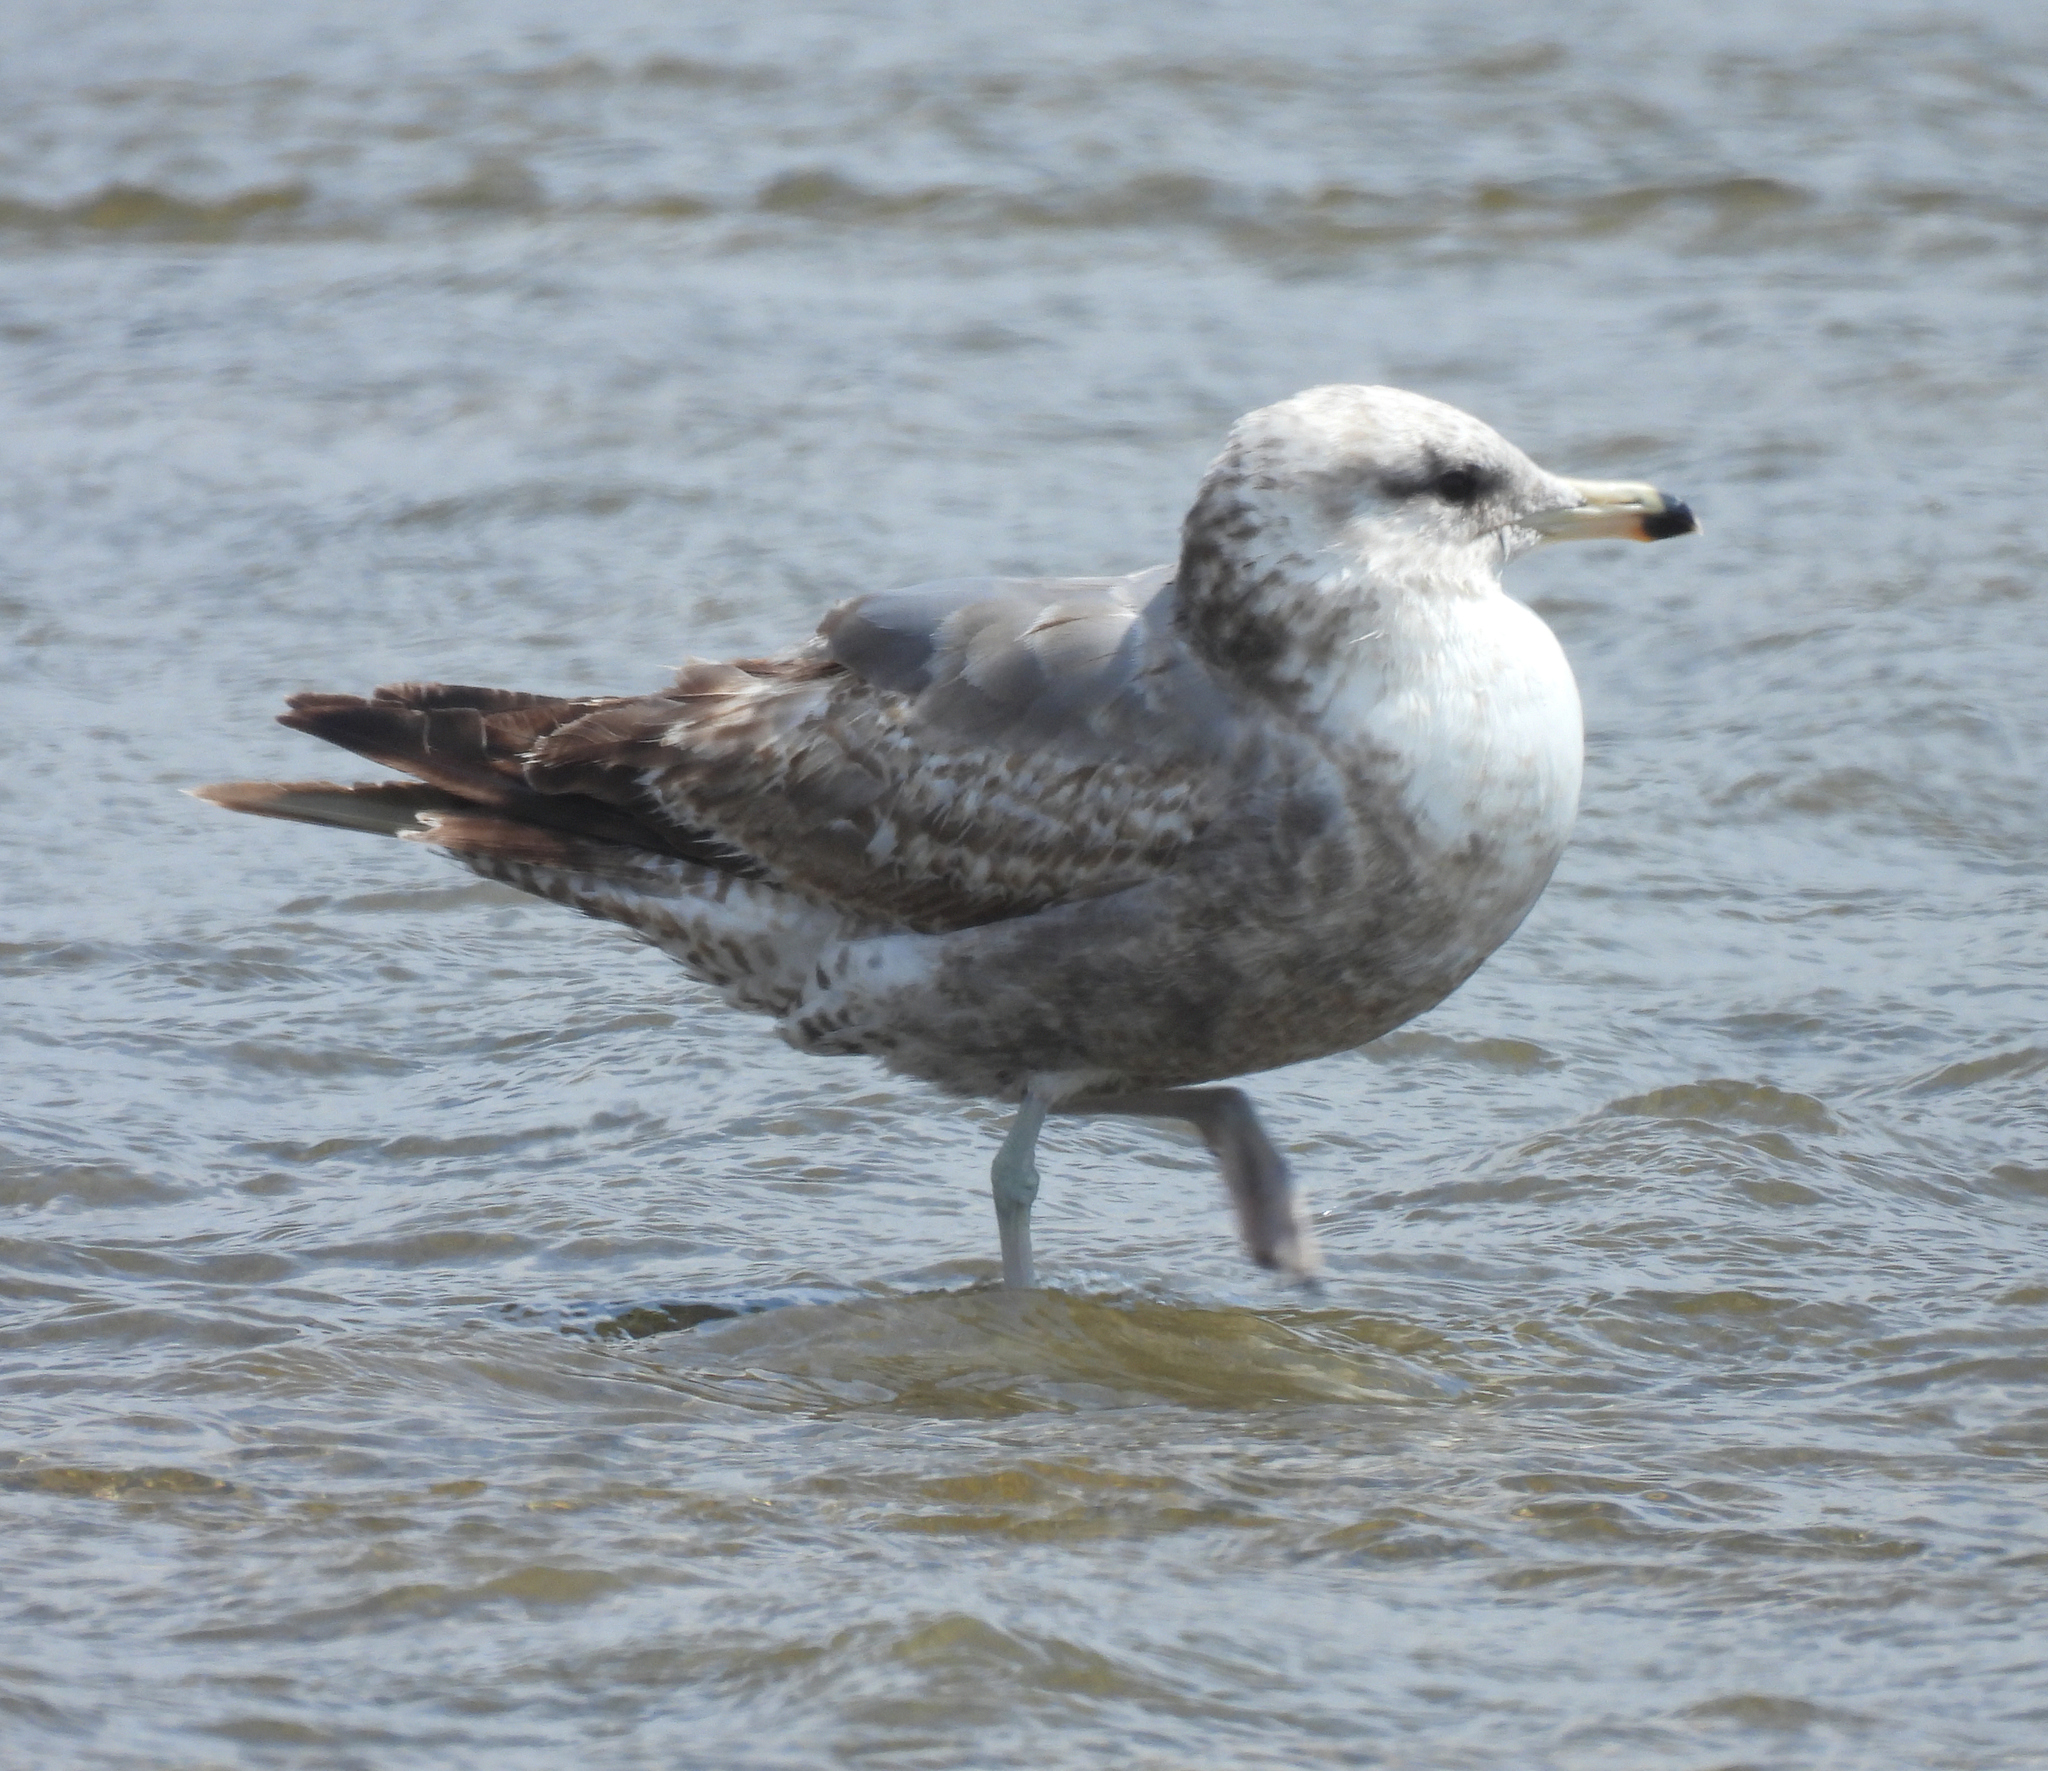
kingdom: Animalia
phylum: Chordata
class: Aves
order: Charadriiformes
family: Laridae
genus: Larus
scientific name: Larus californicus
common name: California gull
